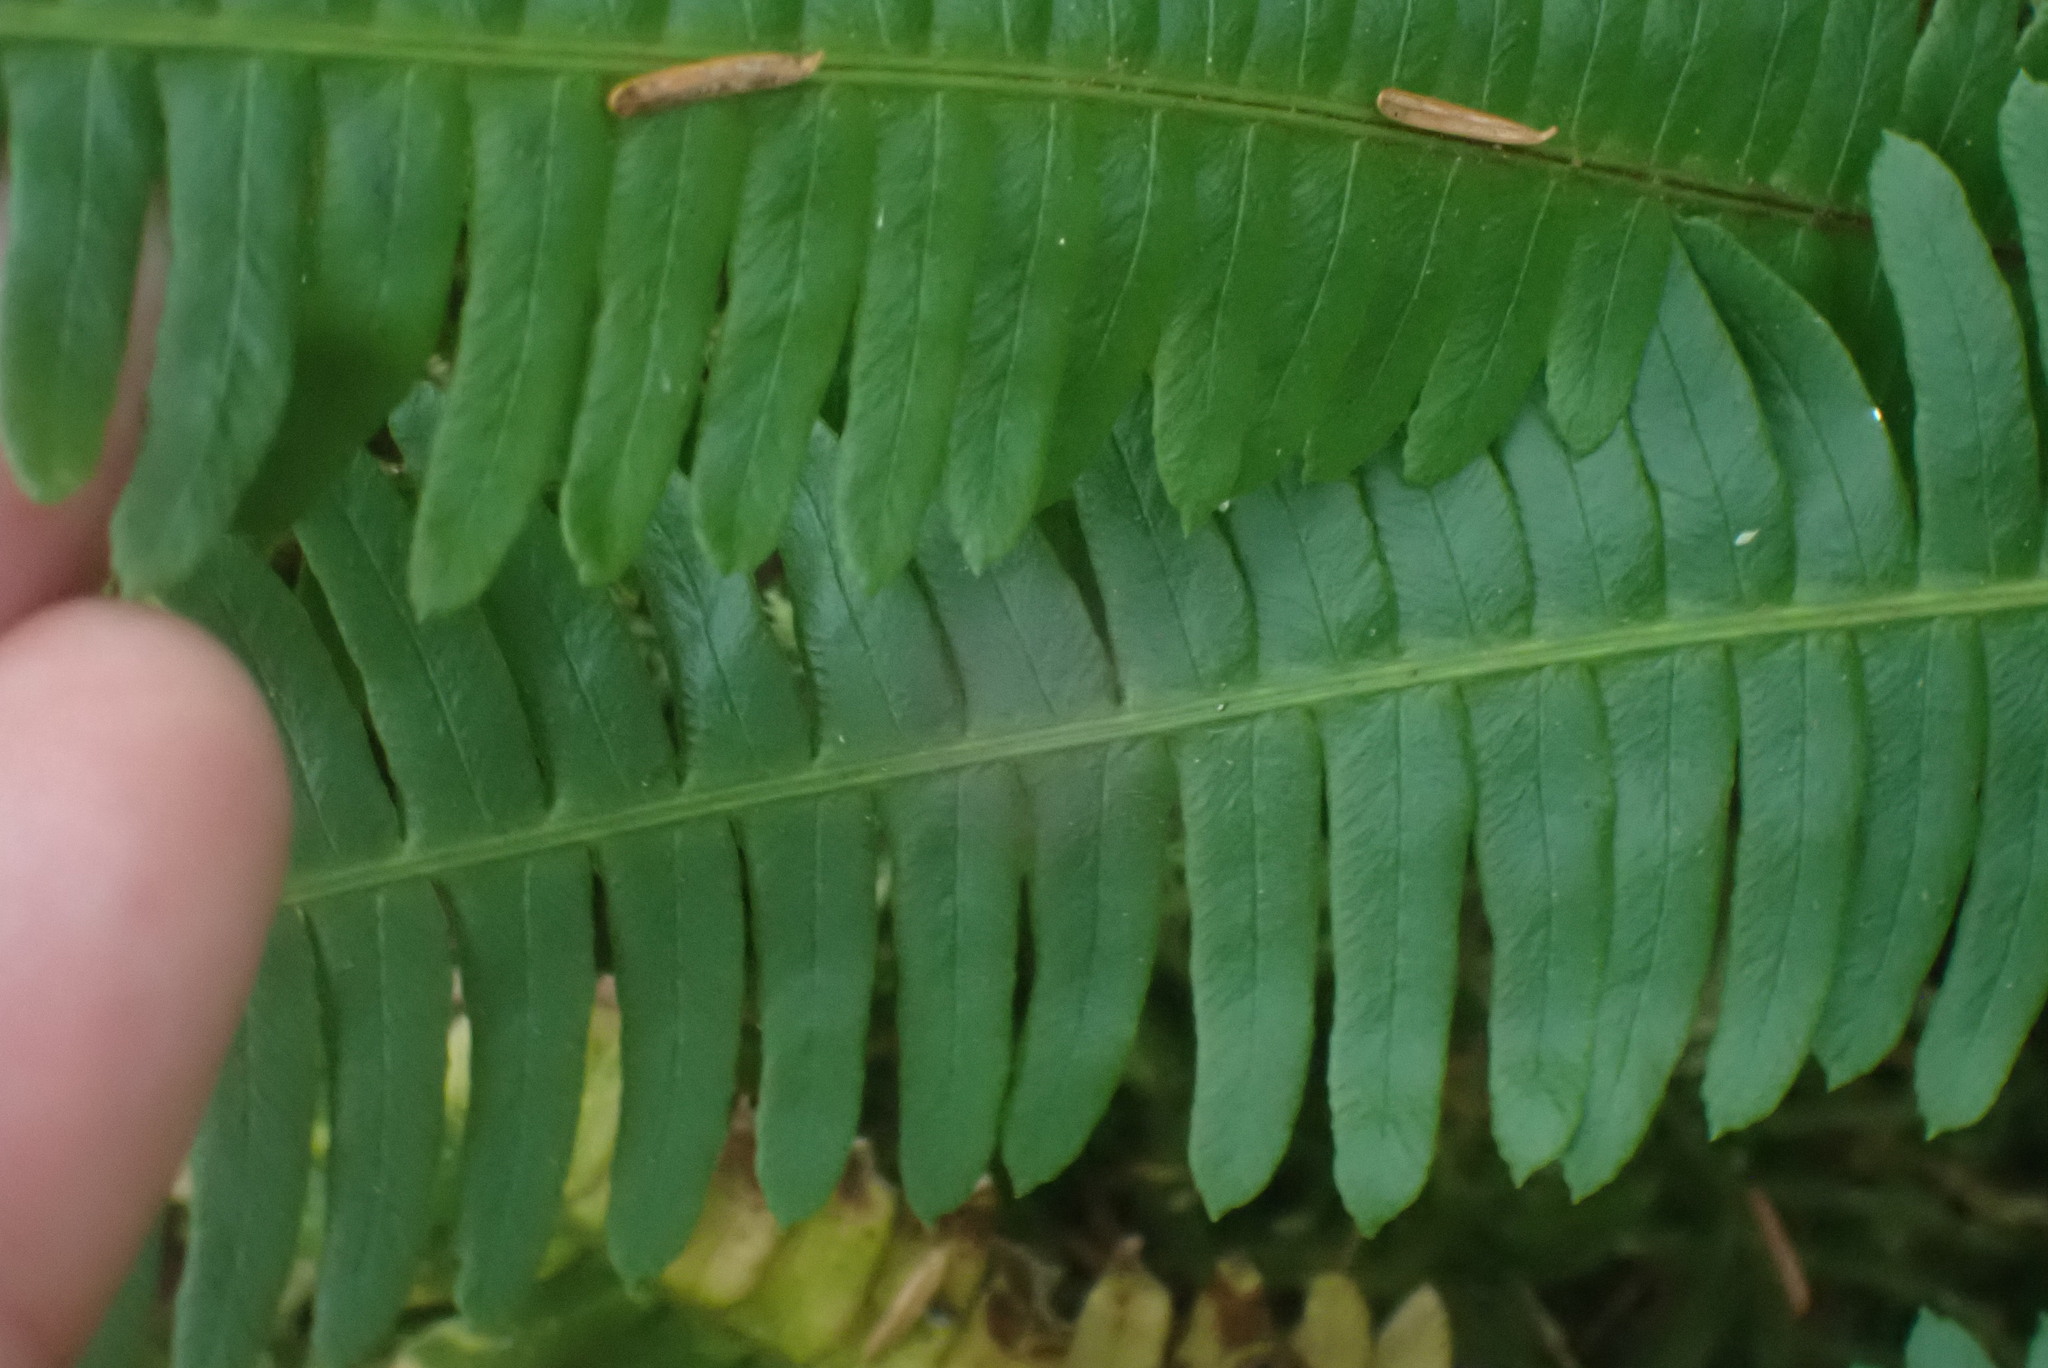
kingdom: Plantae
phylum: Tracheophyta
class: Polypodiopsida
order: Polypodiales
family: Blechnaceae
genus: Struthiopteris
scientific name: Struthiopteris spicant
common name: Deer fern
